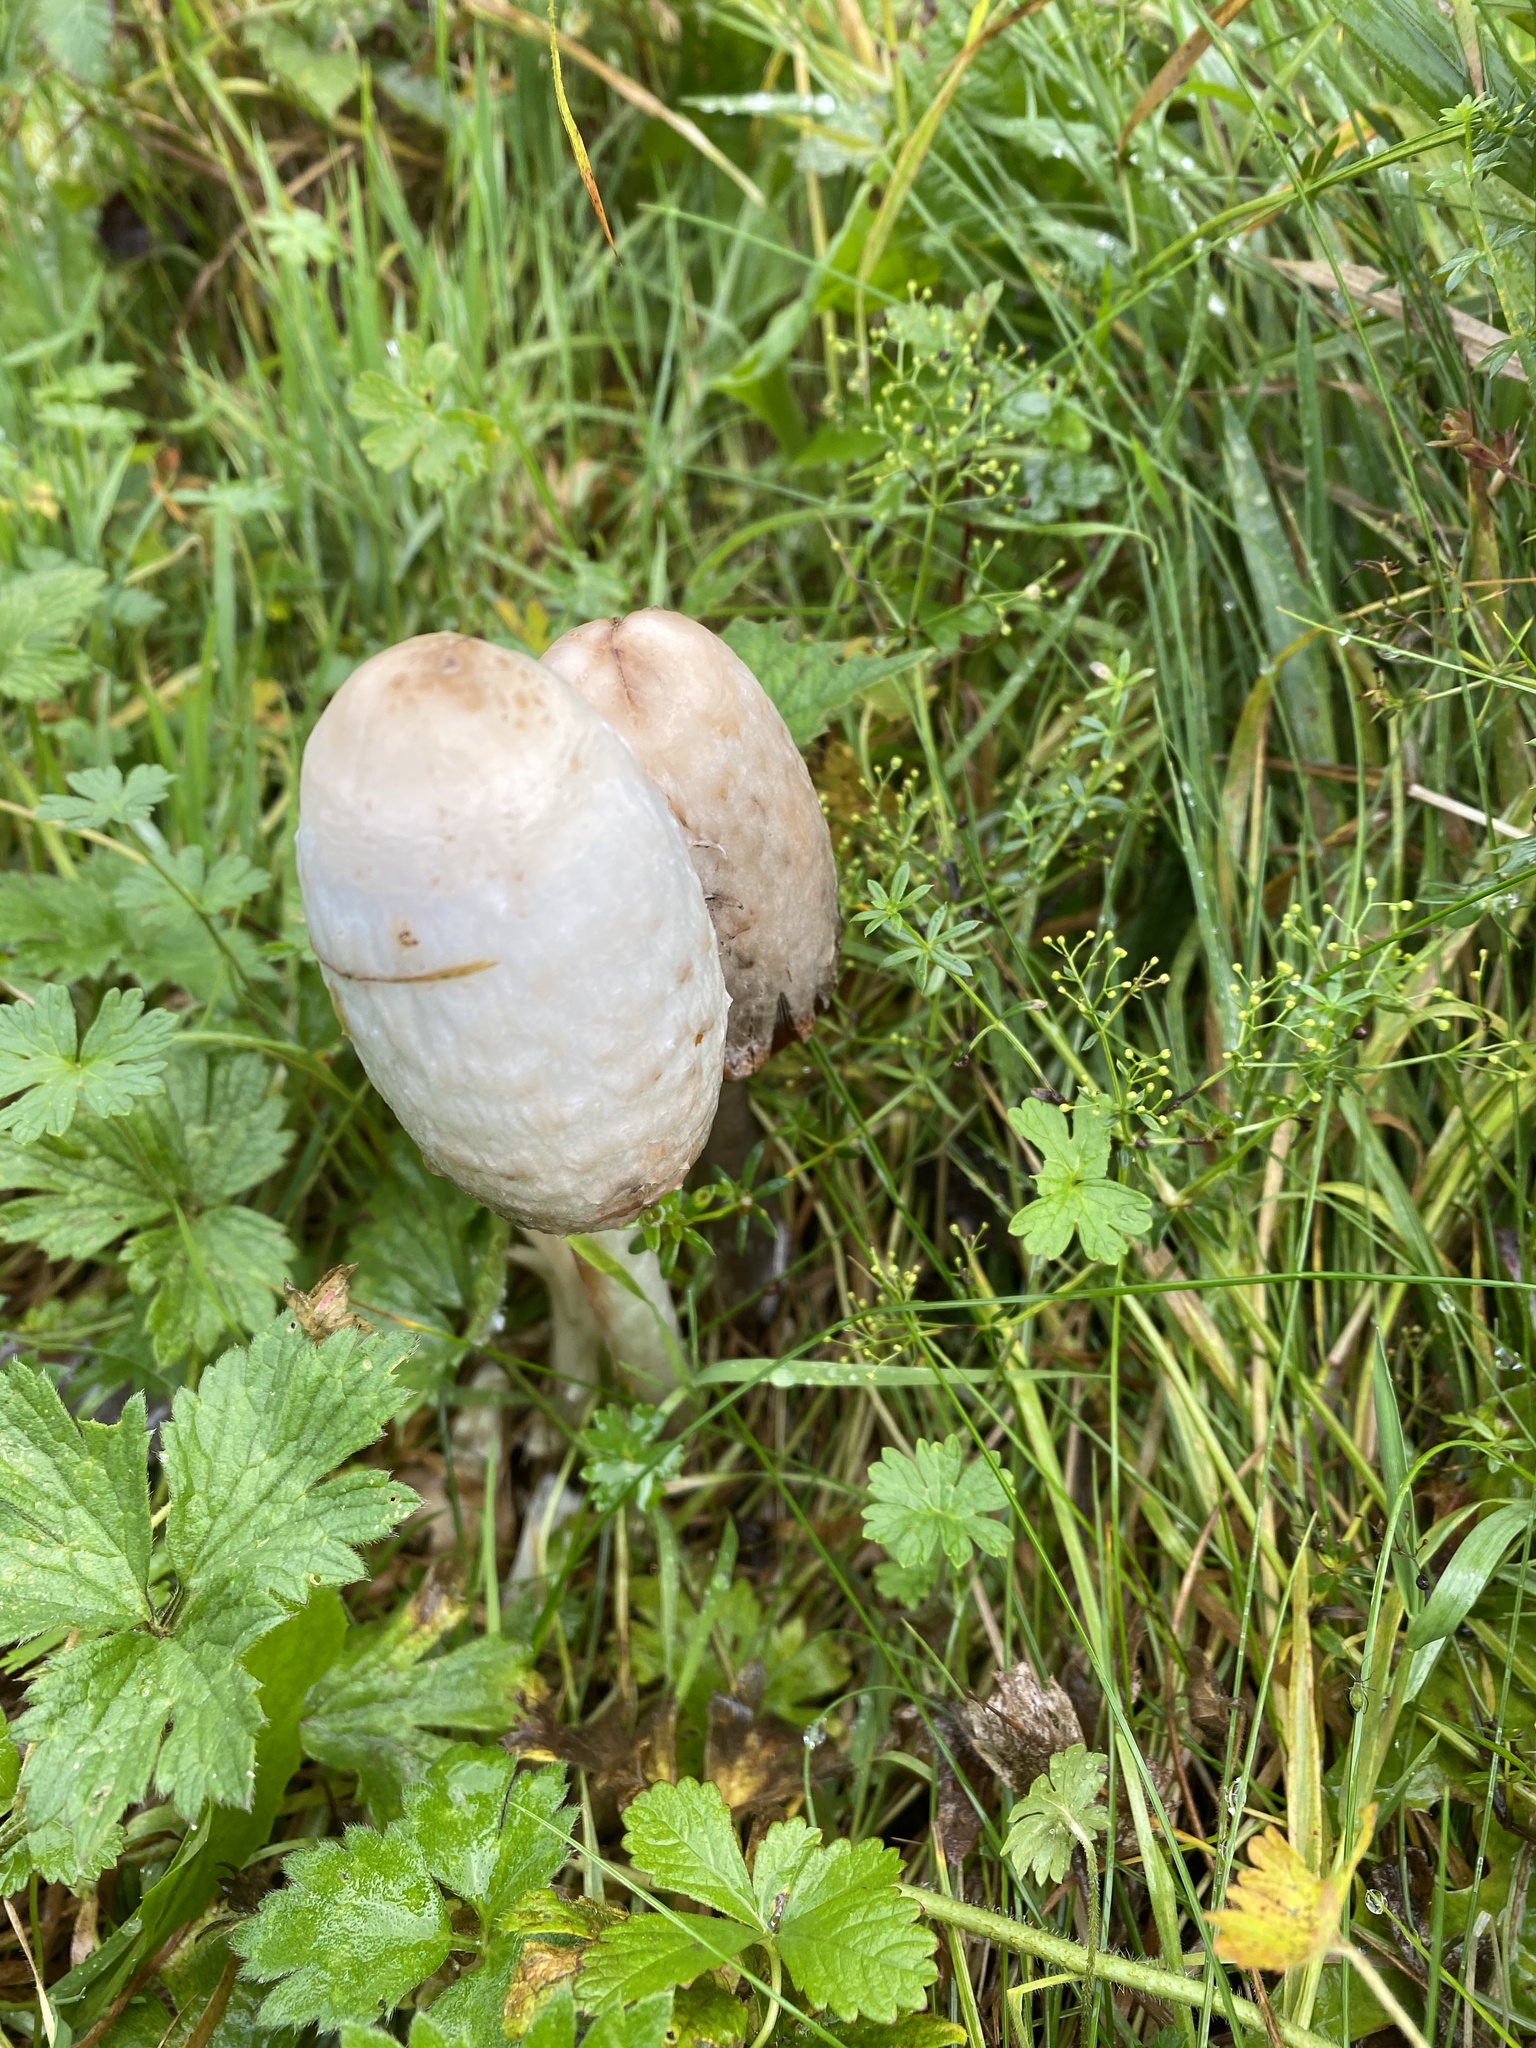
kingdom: Fungi
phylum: Basidiomycota
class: Agaricomycetes
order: Agaricales
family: Agaricaceae
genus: Coprinus
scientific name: Coprinus comatus
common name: Lawyer's wig
